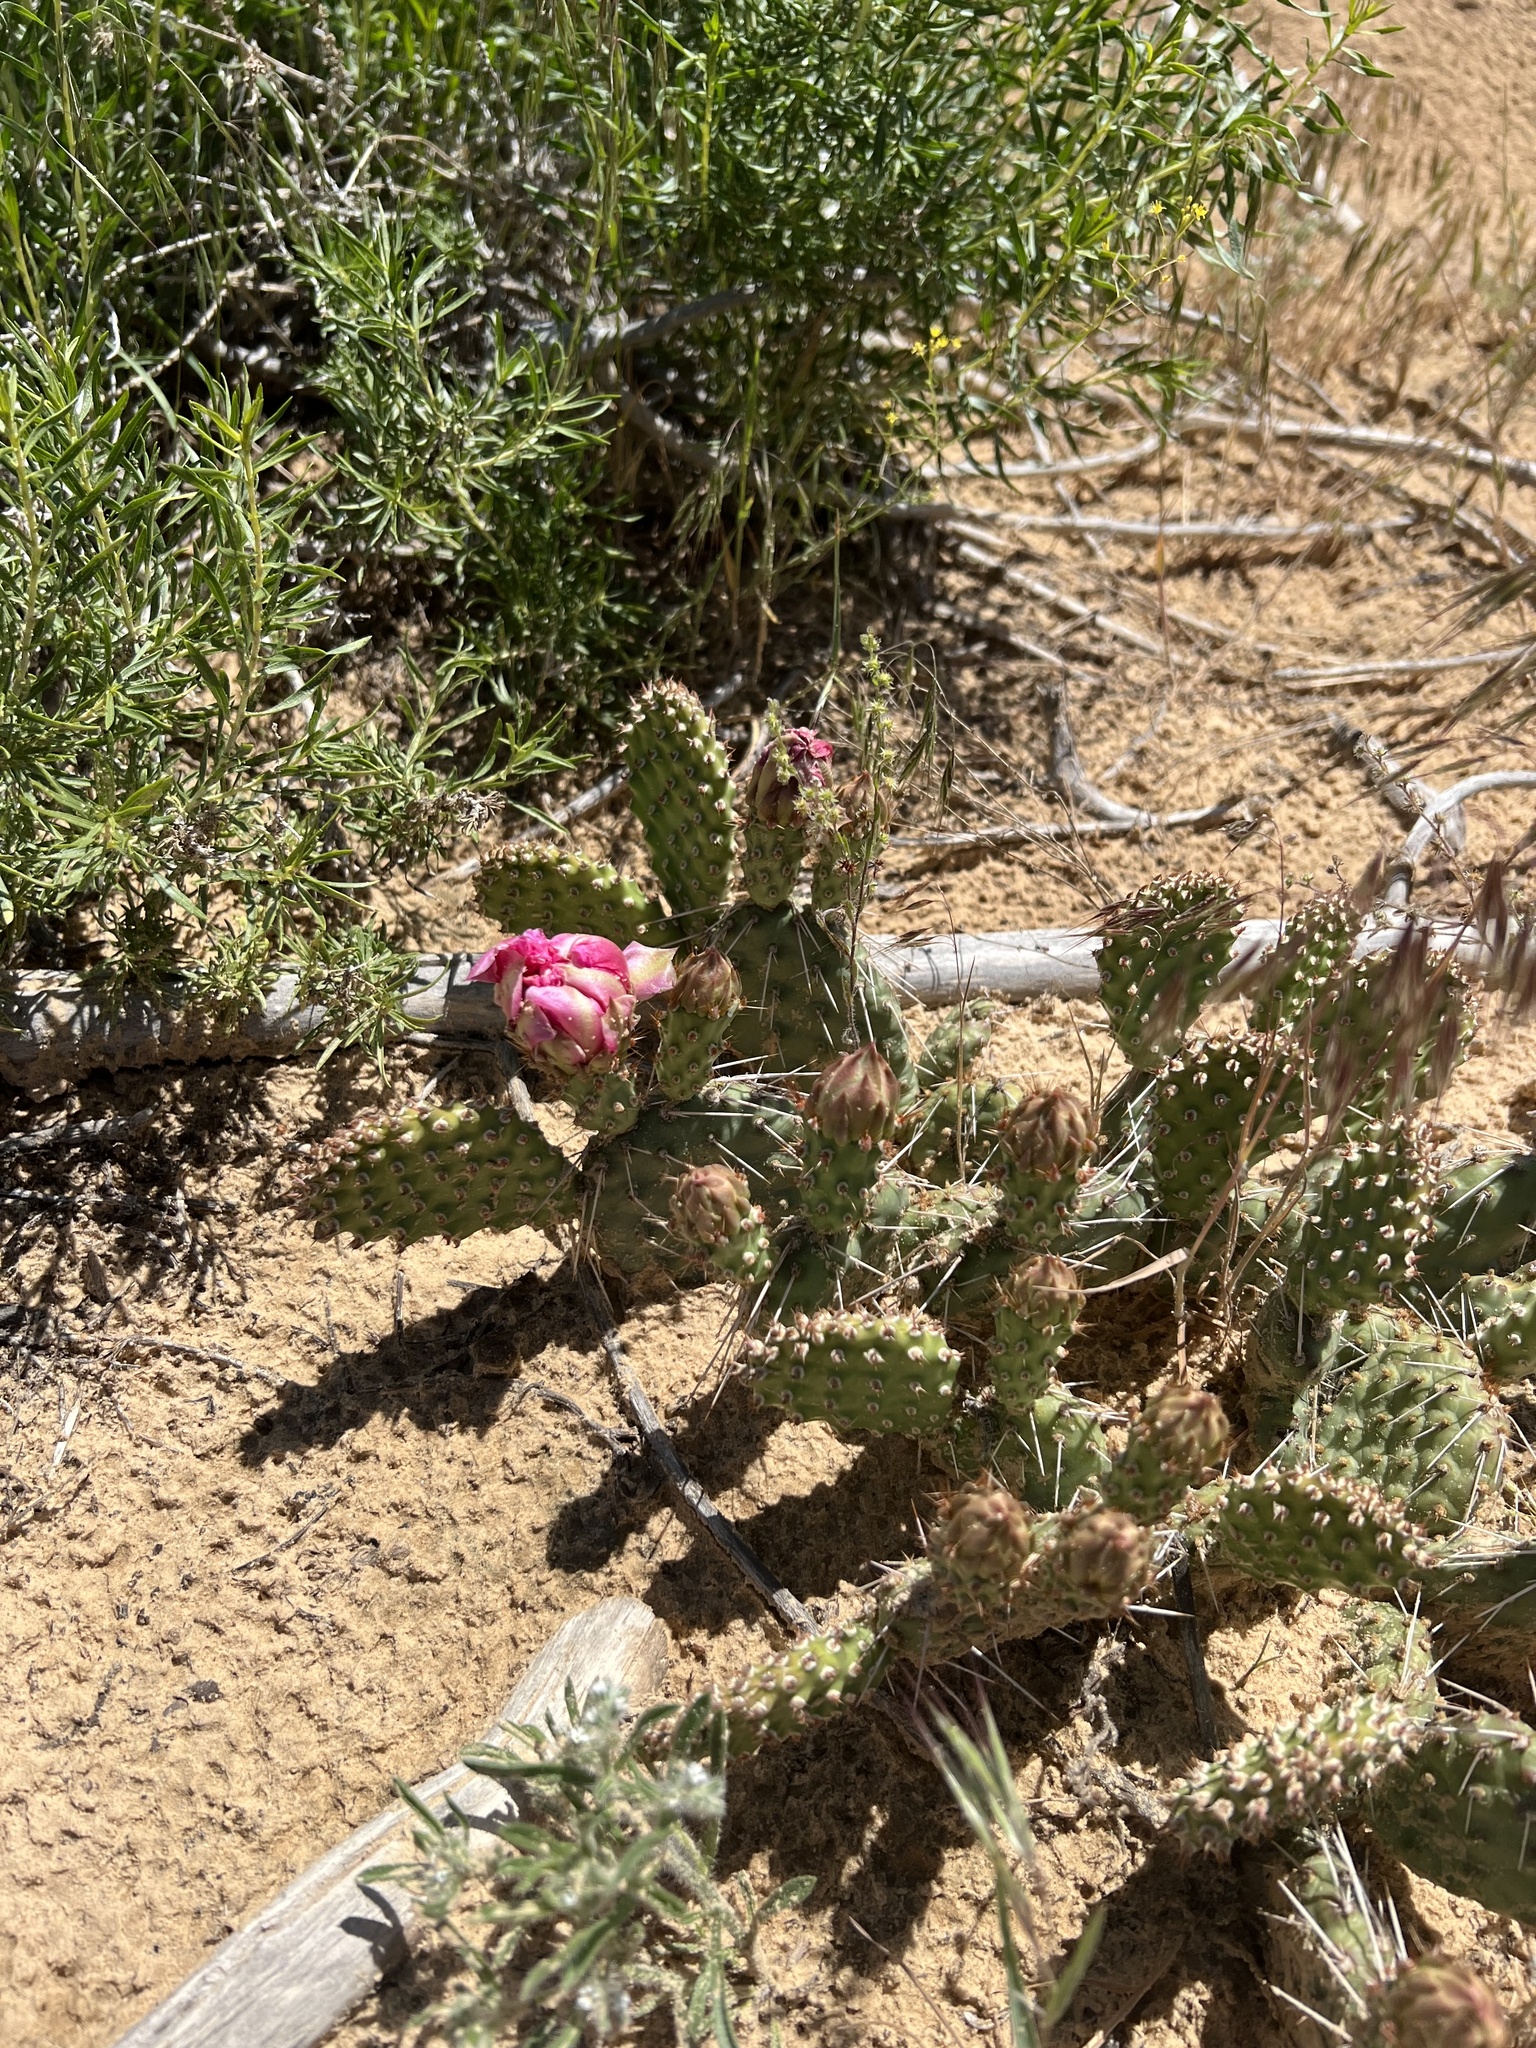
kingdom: Plantae
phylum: Tracheophyta
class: Magnoliopsida
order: Caryophyllales
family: Cactaceae
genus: Opuntia
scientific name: Opuntia polyacantha
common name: Plains prickly-pear
